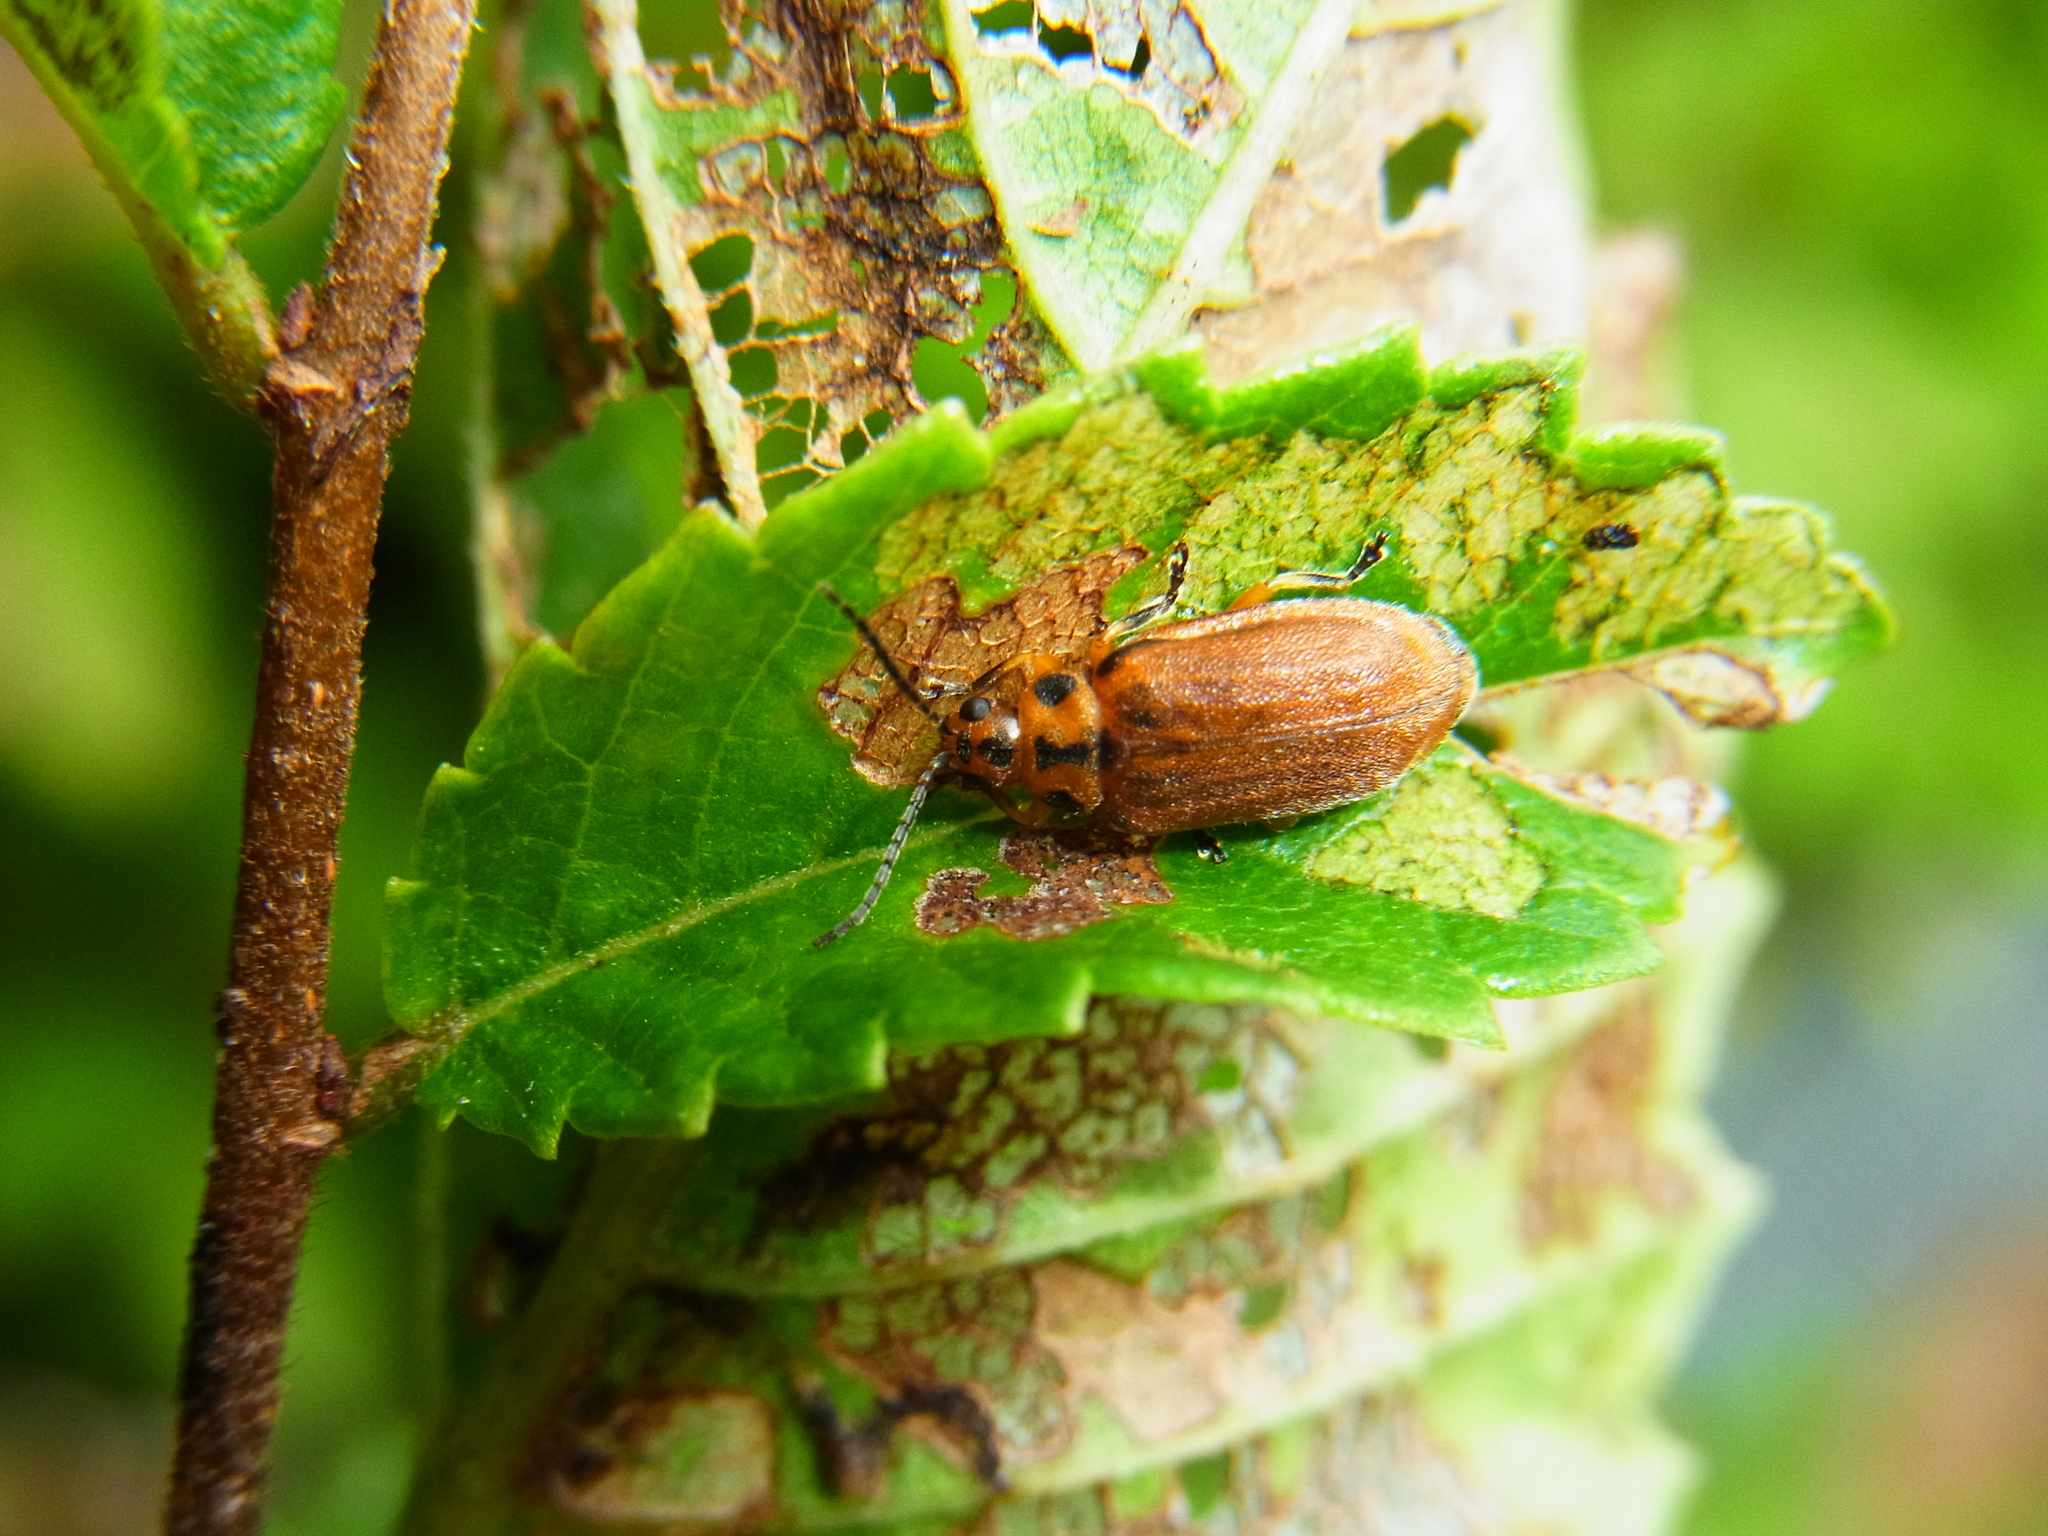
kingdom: Animalia
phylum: Arthropoda
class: Insecta
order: Coleoptera
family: Chrysomelidae
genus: Xanthogaleruca
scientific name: Xanthogaleruca
